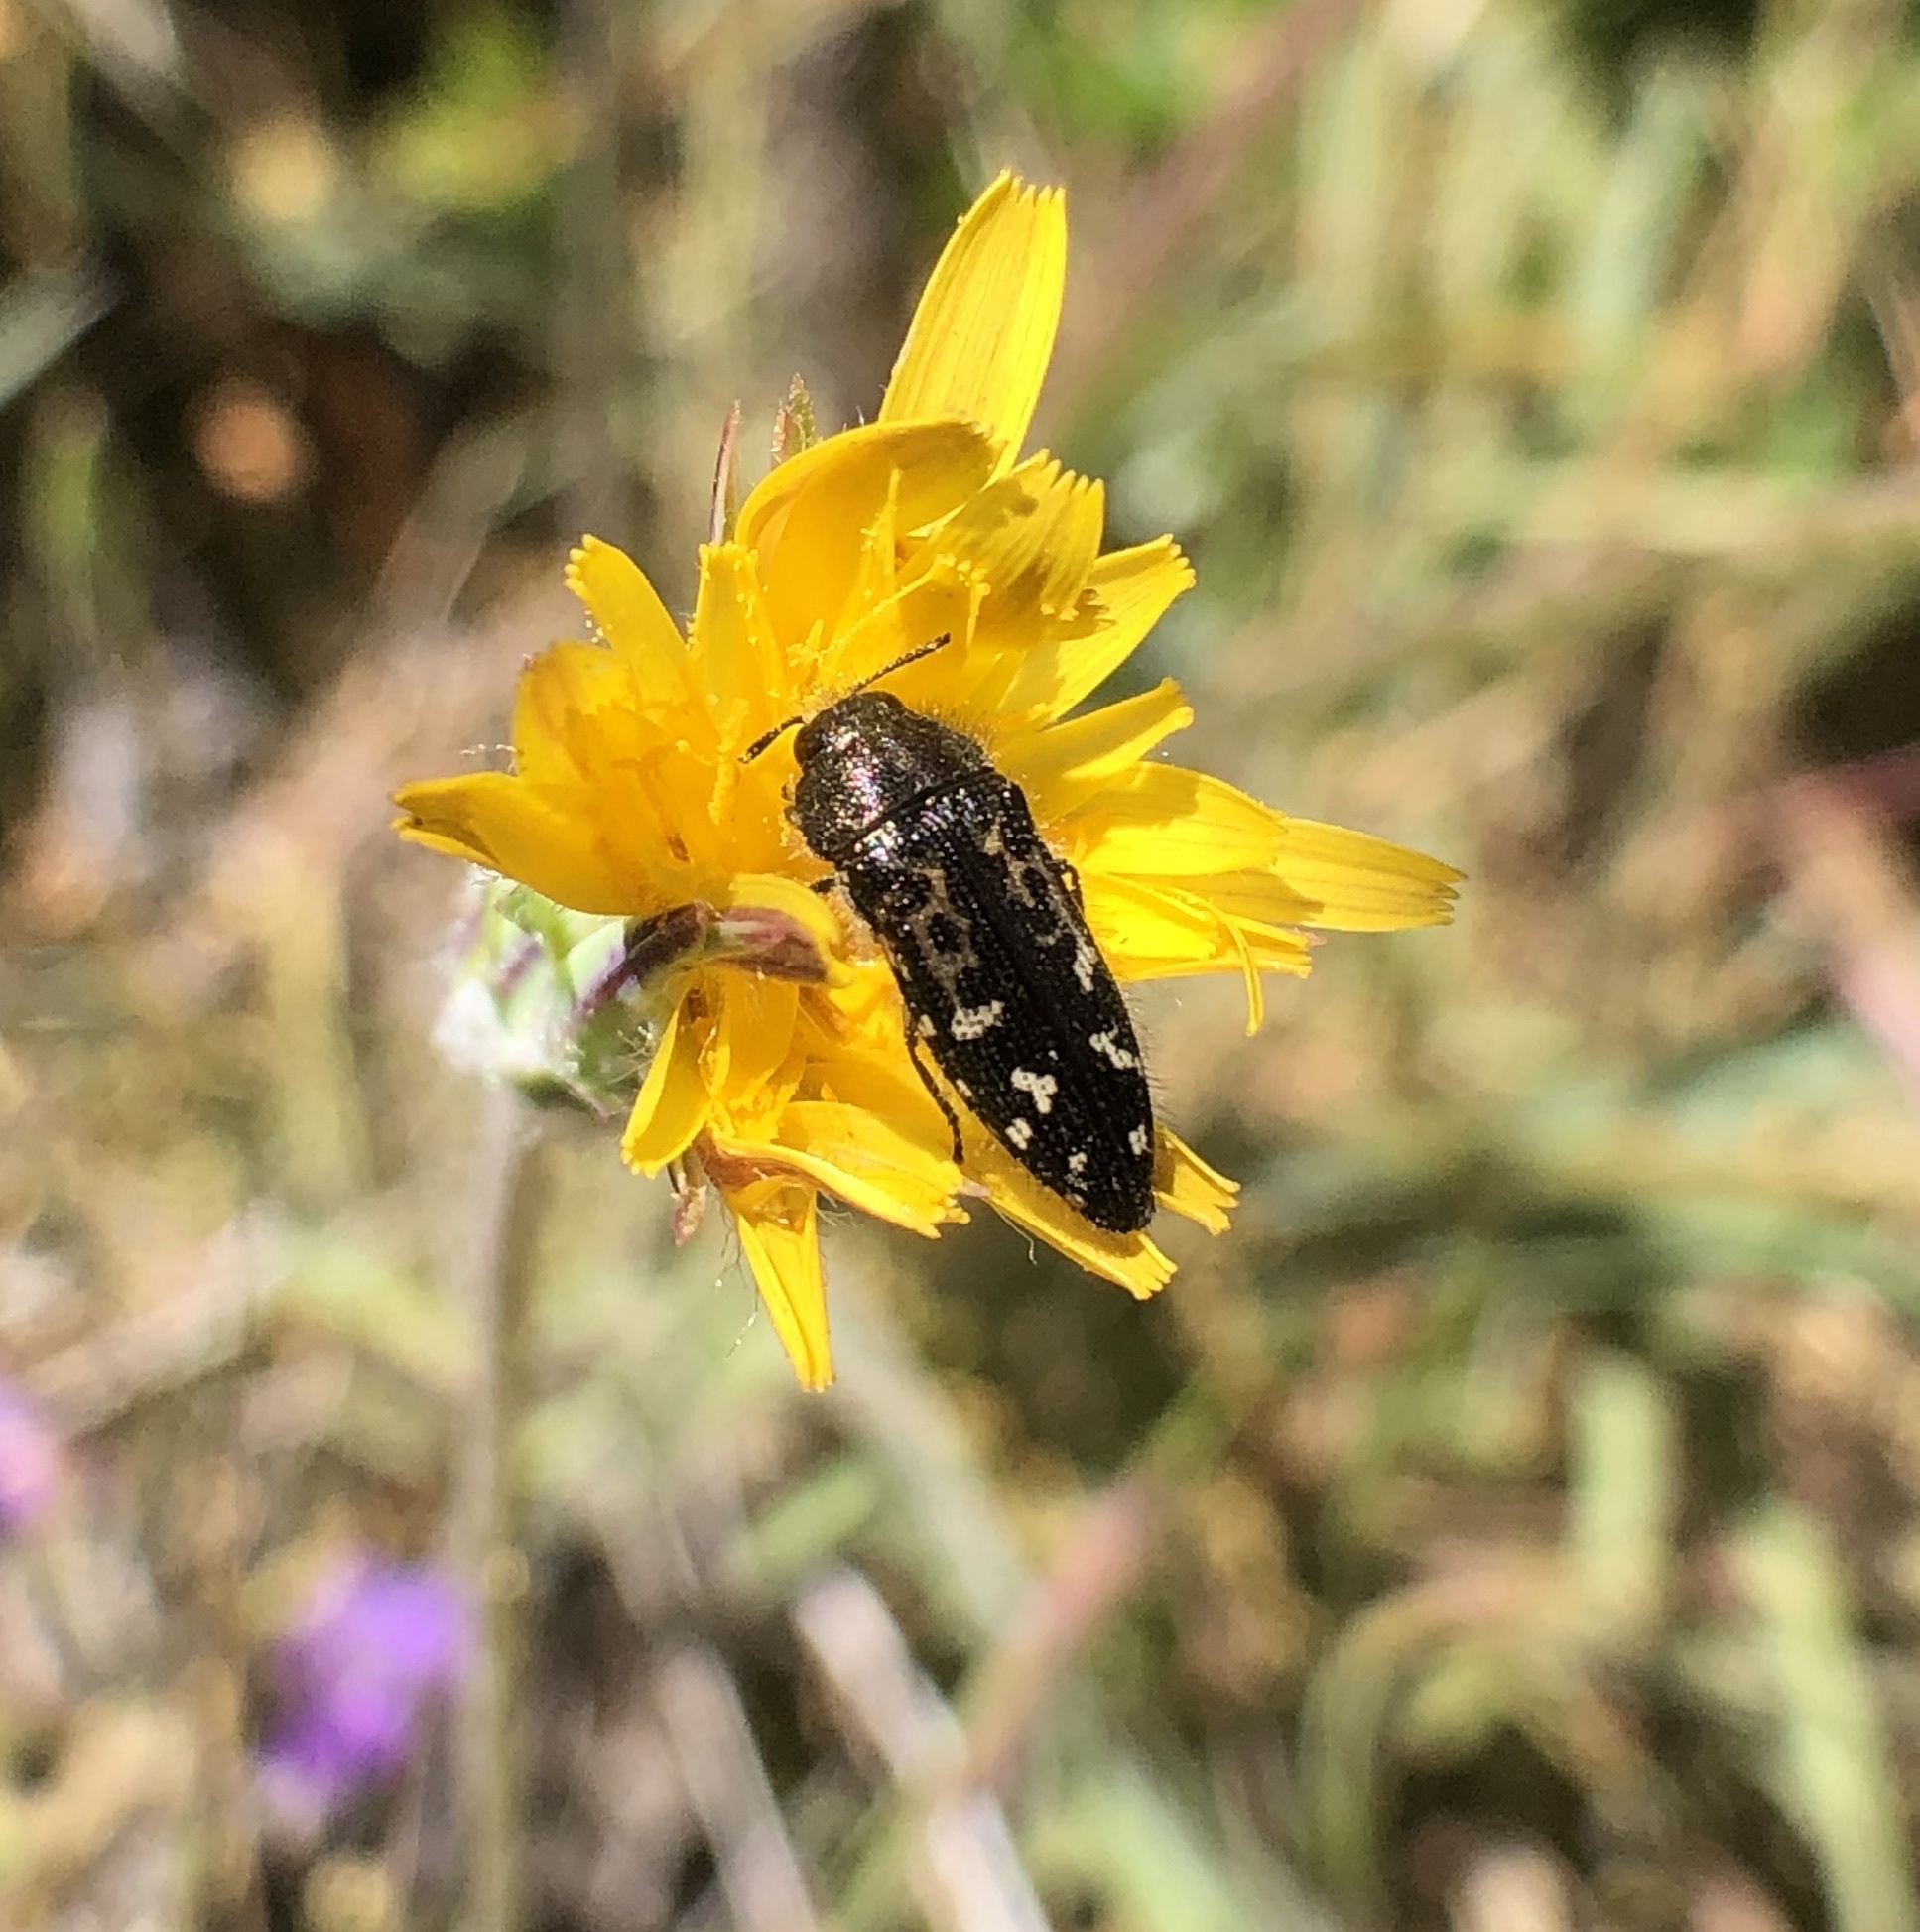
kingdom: Animalia
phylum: Arthropoda
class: Insecta
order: Coleoptera
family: Buprestidae
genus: Acmaeodera
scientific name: Acmaeodera connexa
